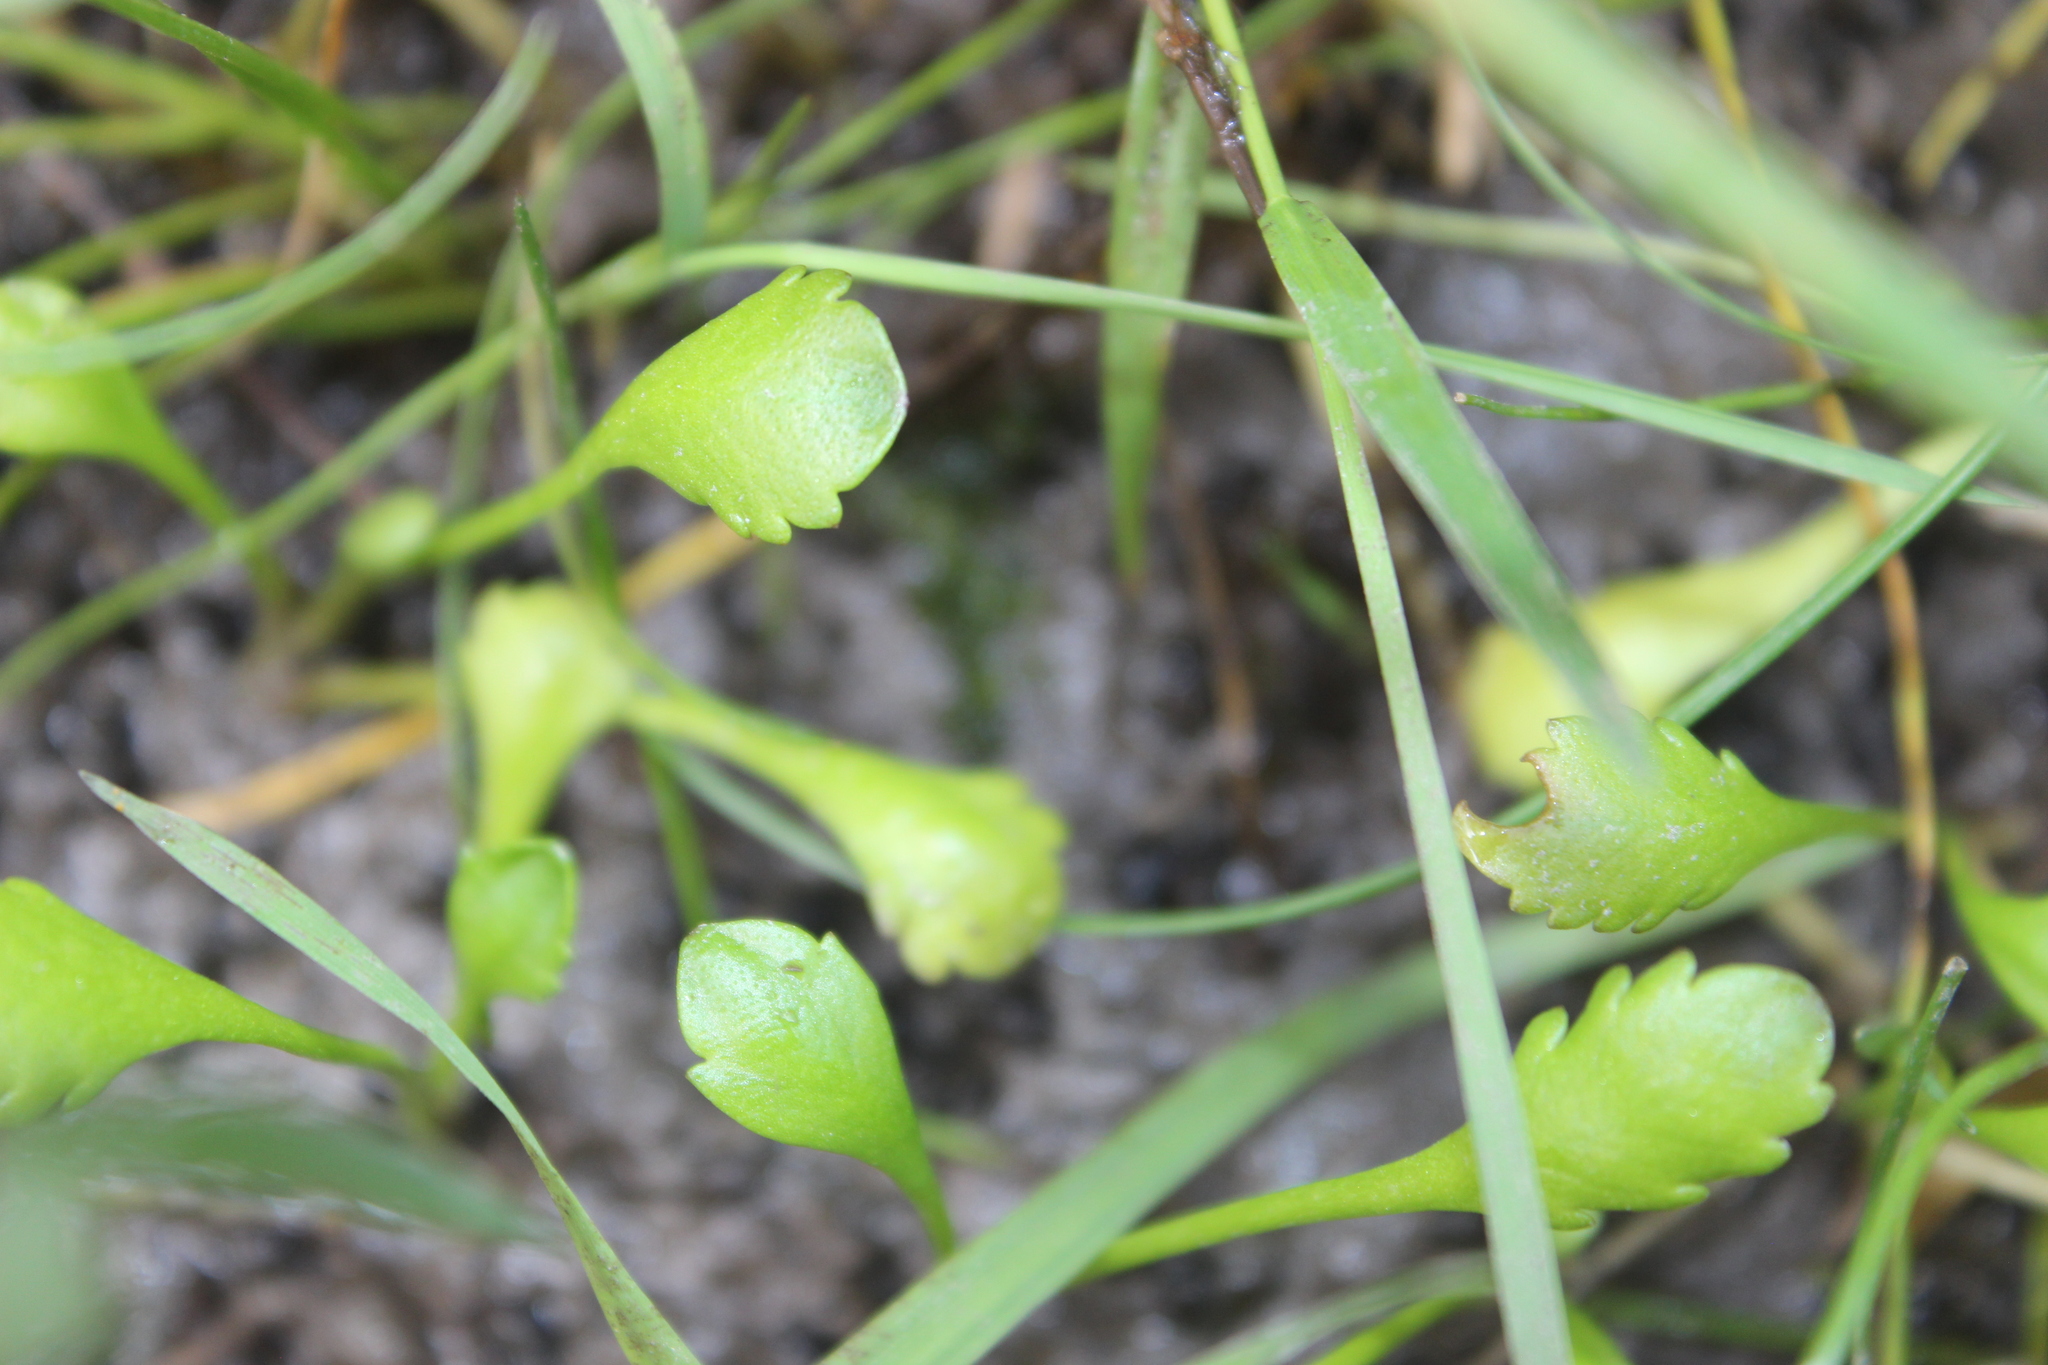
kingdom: Plantae
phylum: Tracheophyta
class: Magnoliopsida
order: Asterales
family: Asteraceae
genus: Leptinella
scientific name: Leptinella dioica
